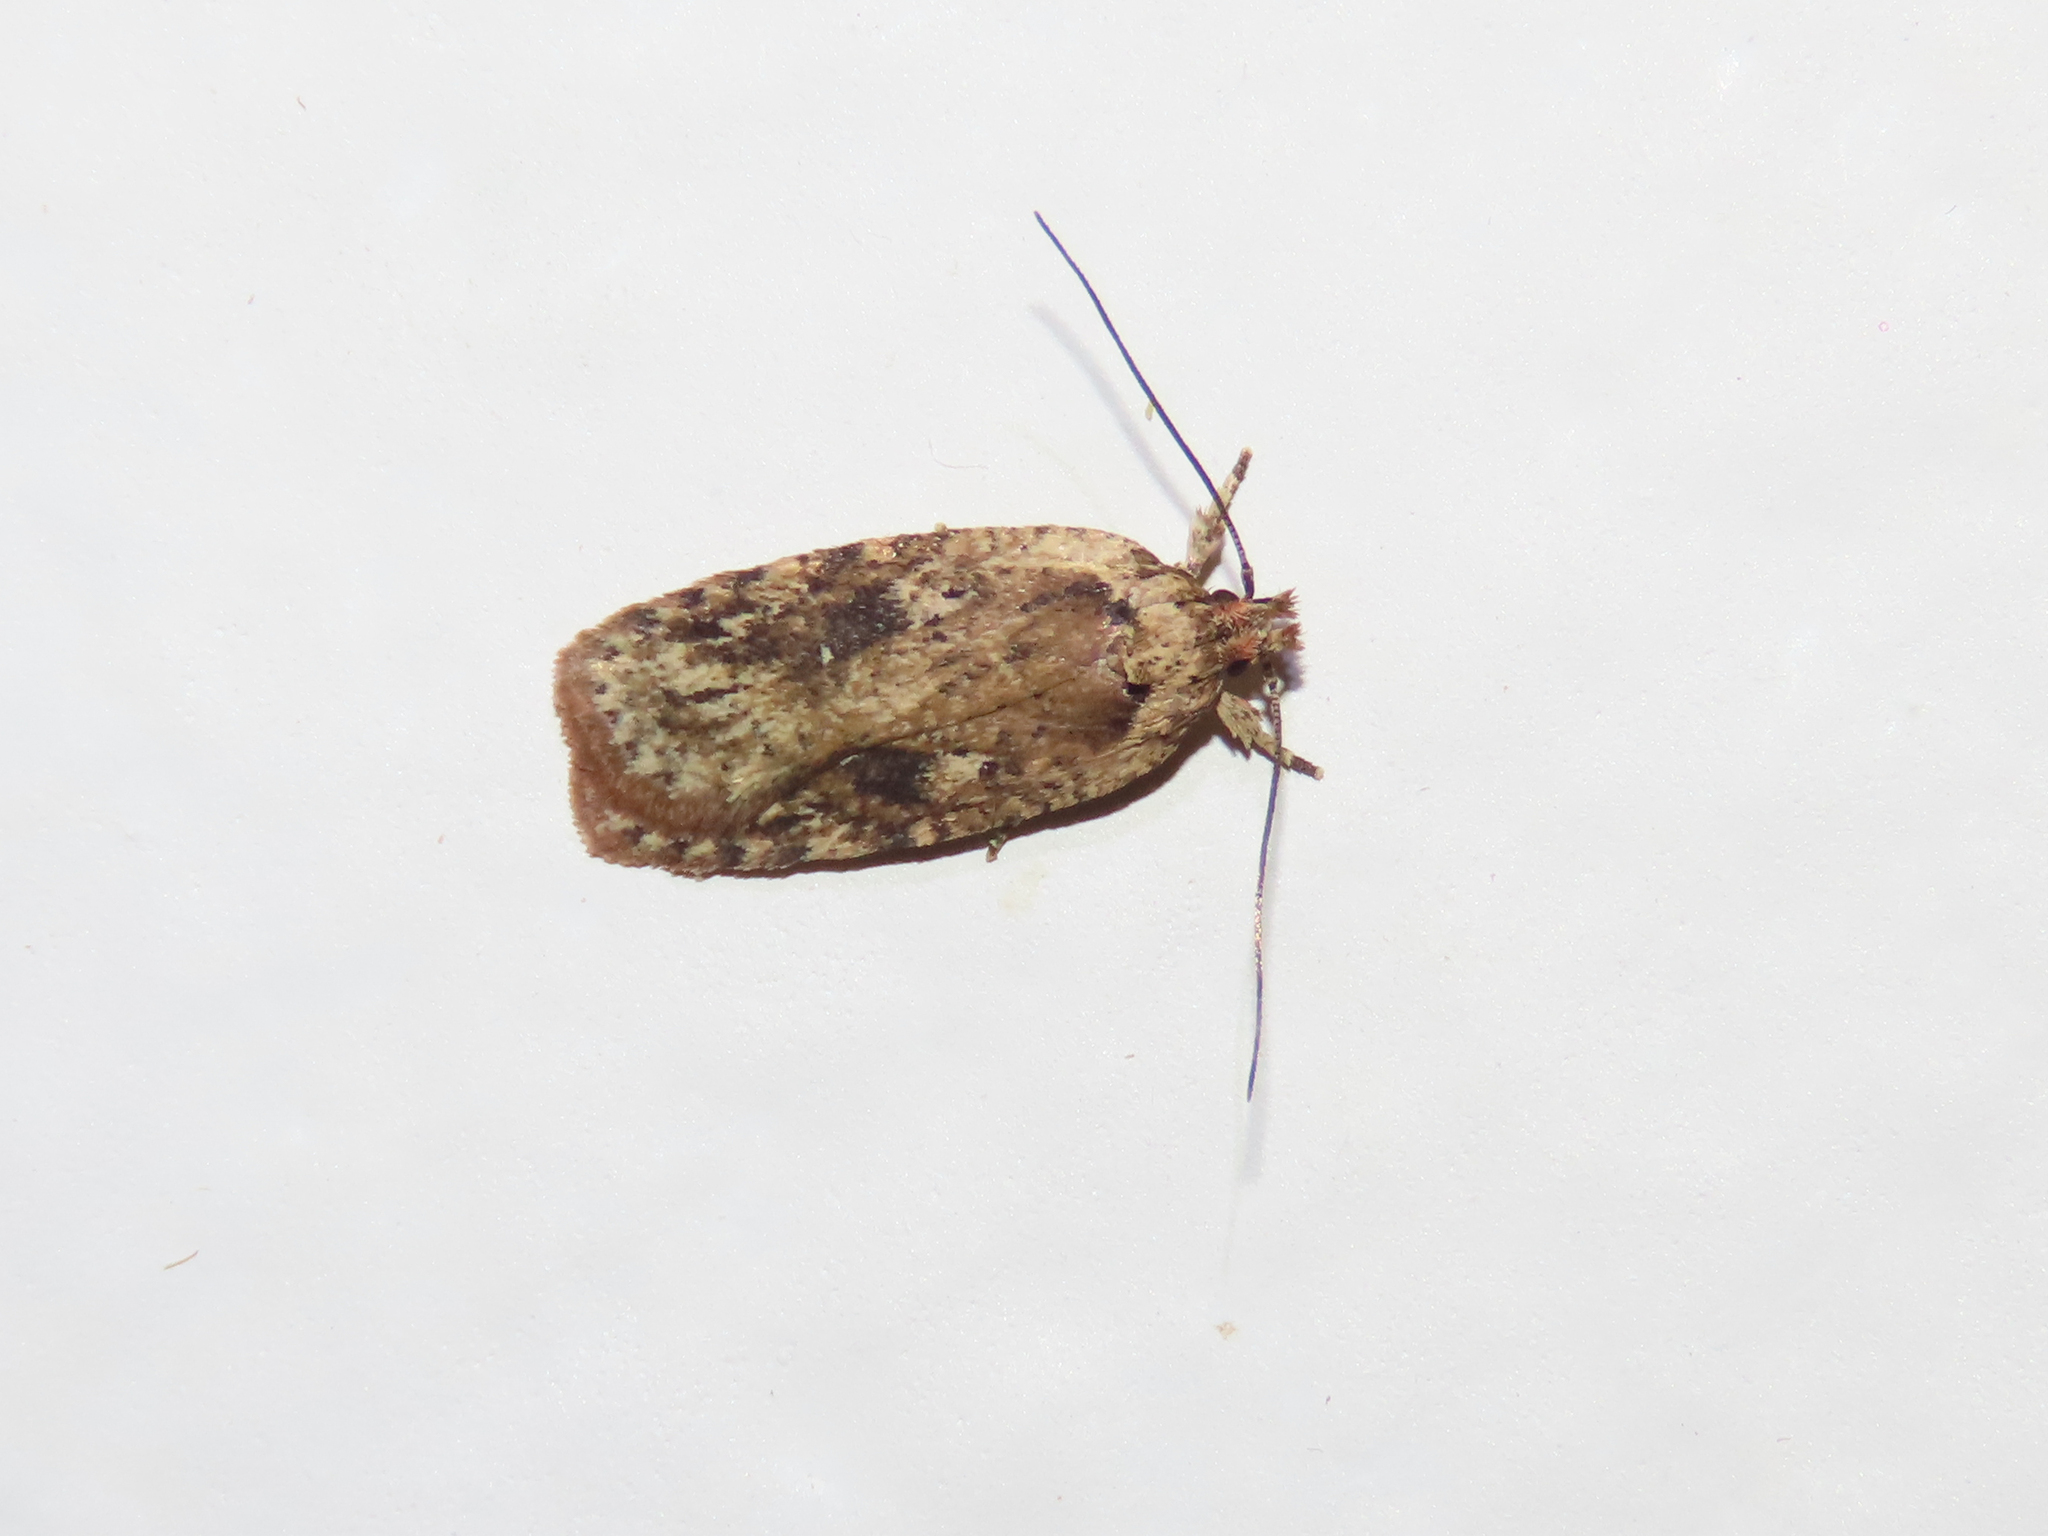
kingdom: Animalia
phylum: Arthropoda
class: Insecta
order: Lepidoptera
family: Depressariidae
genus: Agonopterix
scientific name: Agonopterix pulvipennella
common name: Goldenrod leafffolder
